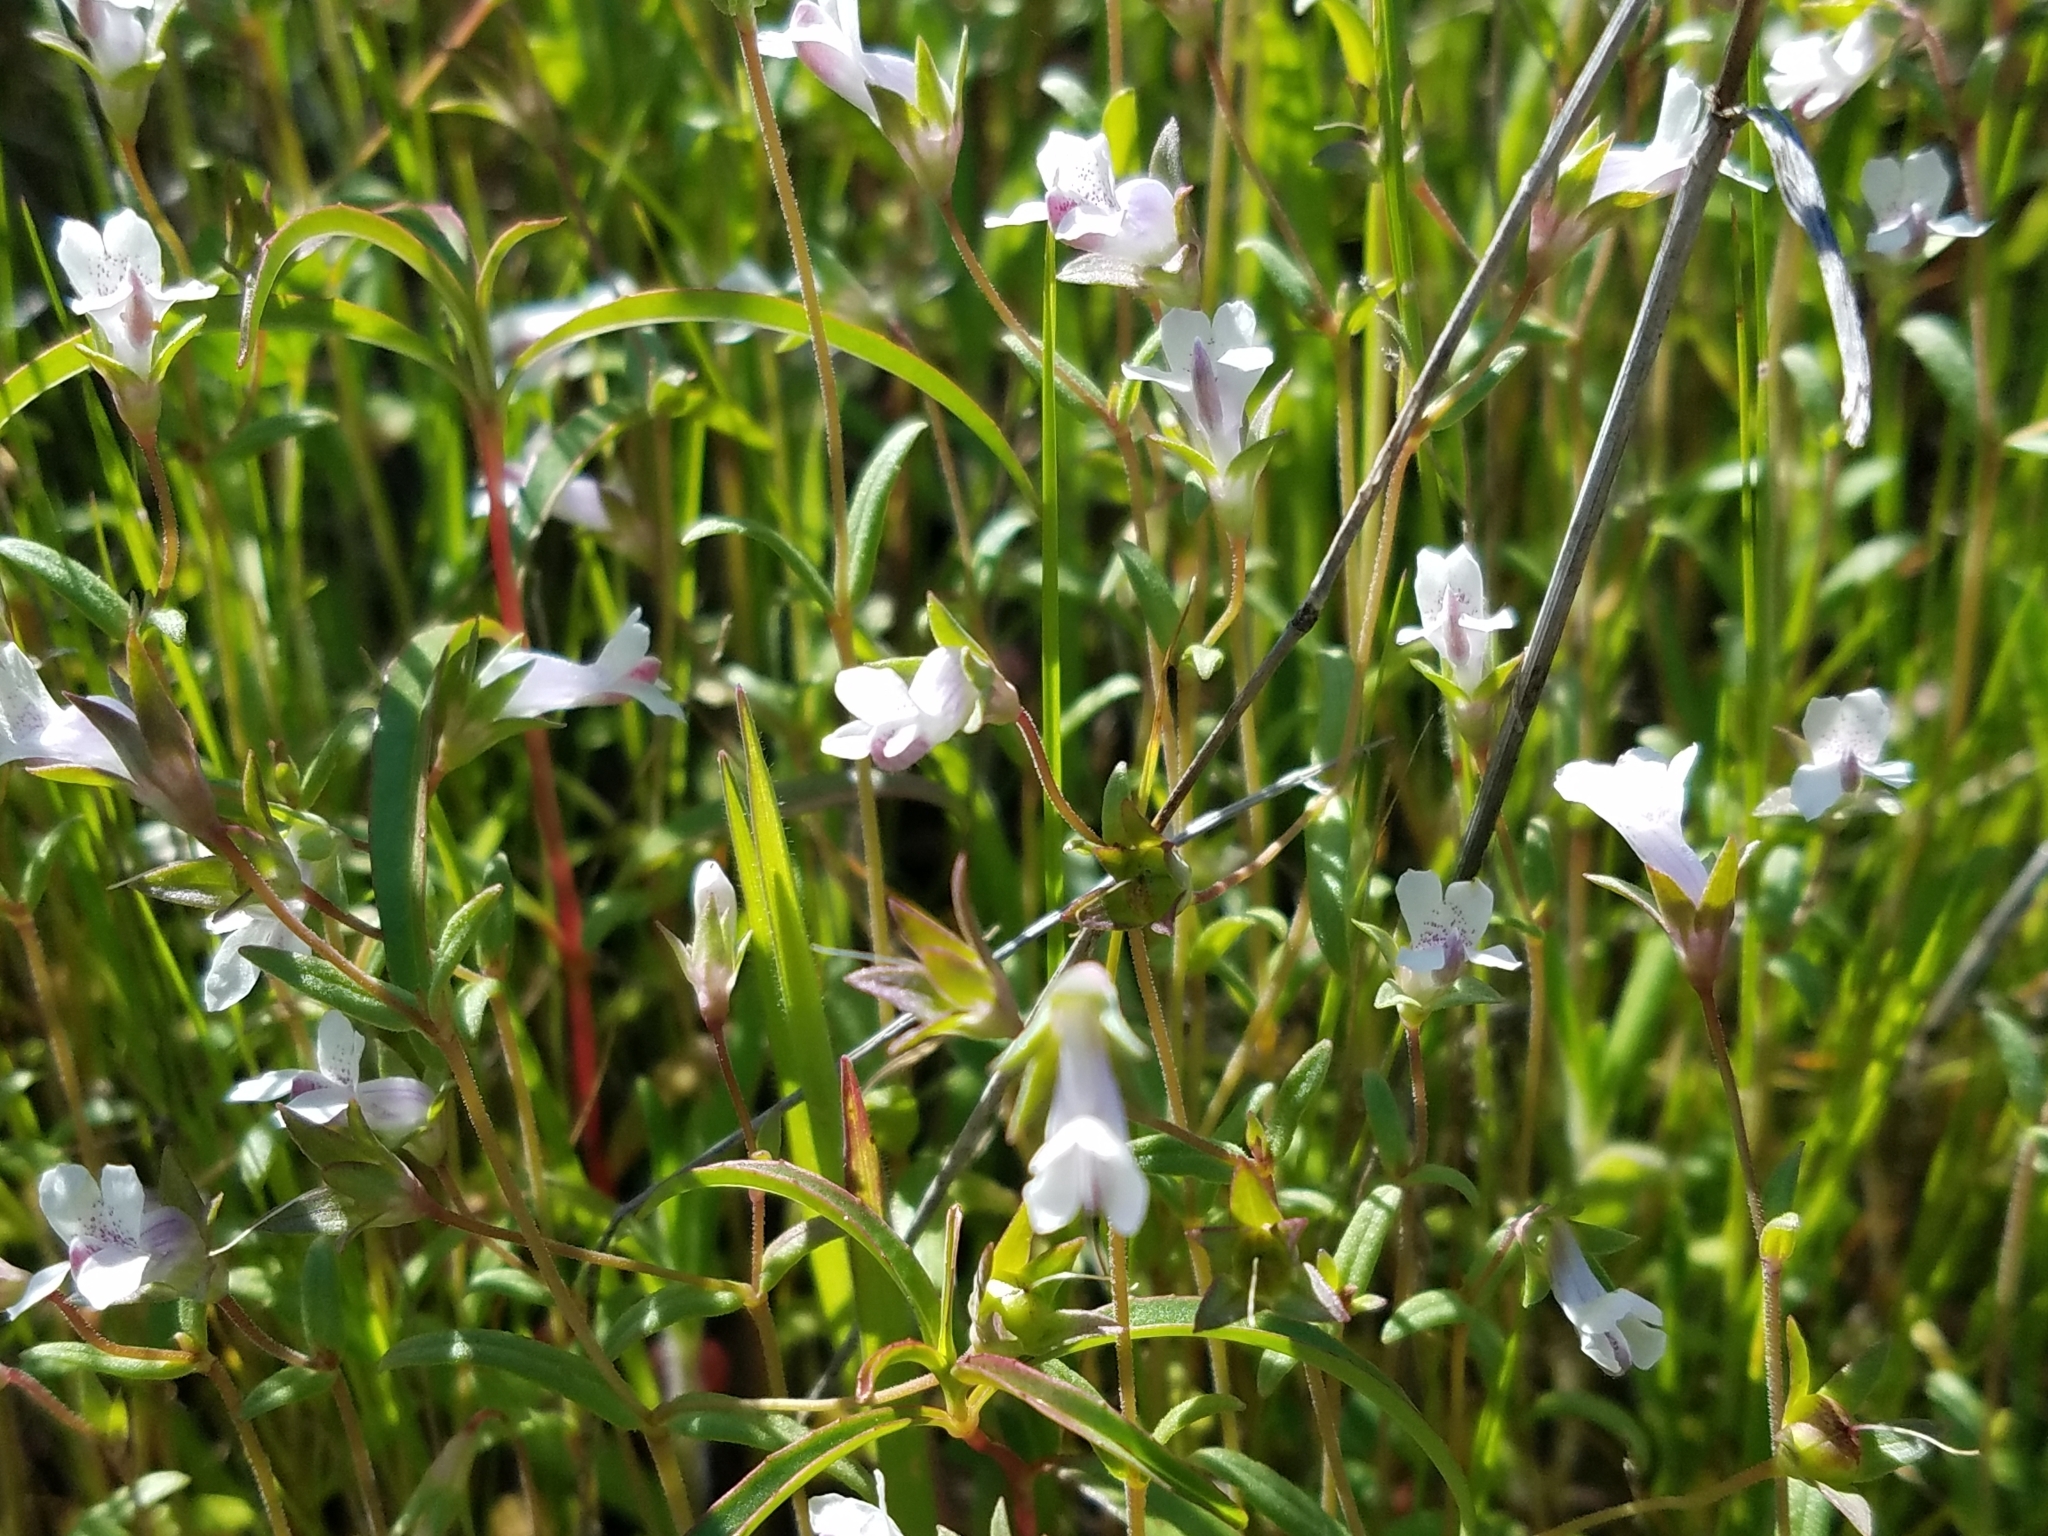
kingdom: Plantae
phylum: Tracheophyta
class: Magnoliopsida
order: Lamiales
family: Plantaginaceae
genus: Collinsia
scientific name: Collinsia sparsiflora
